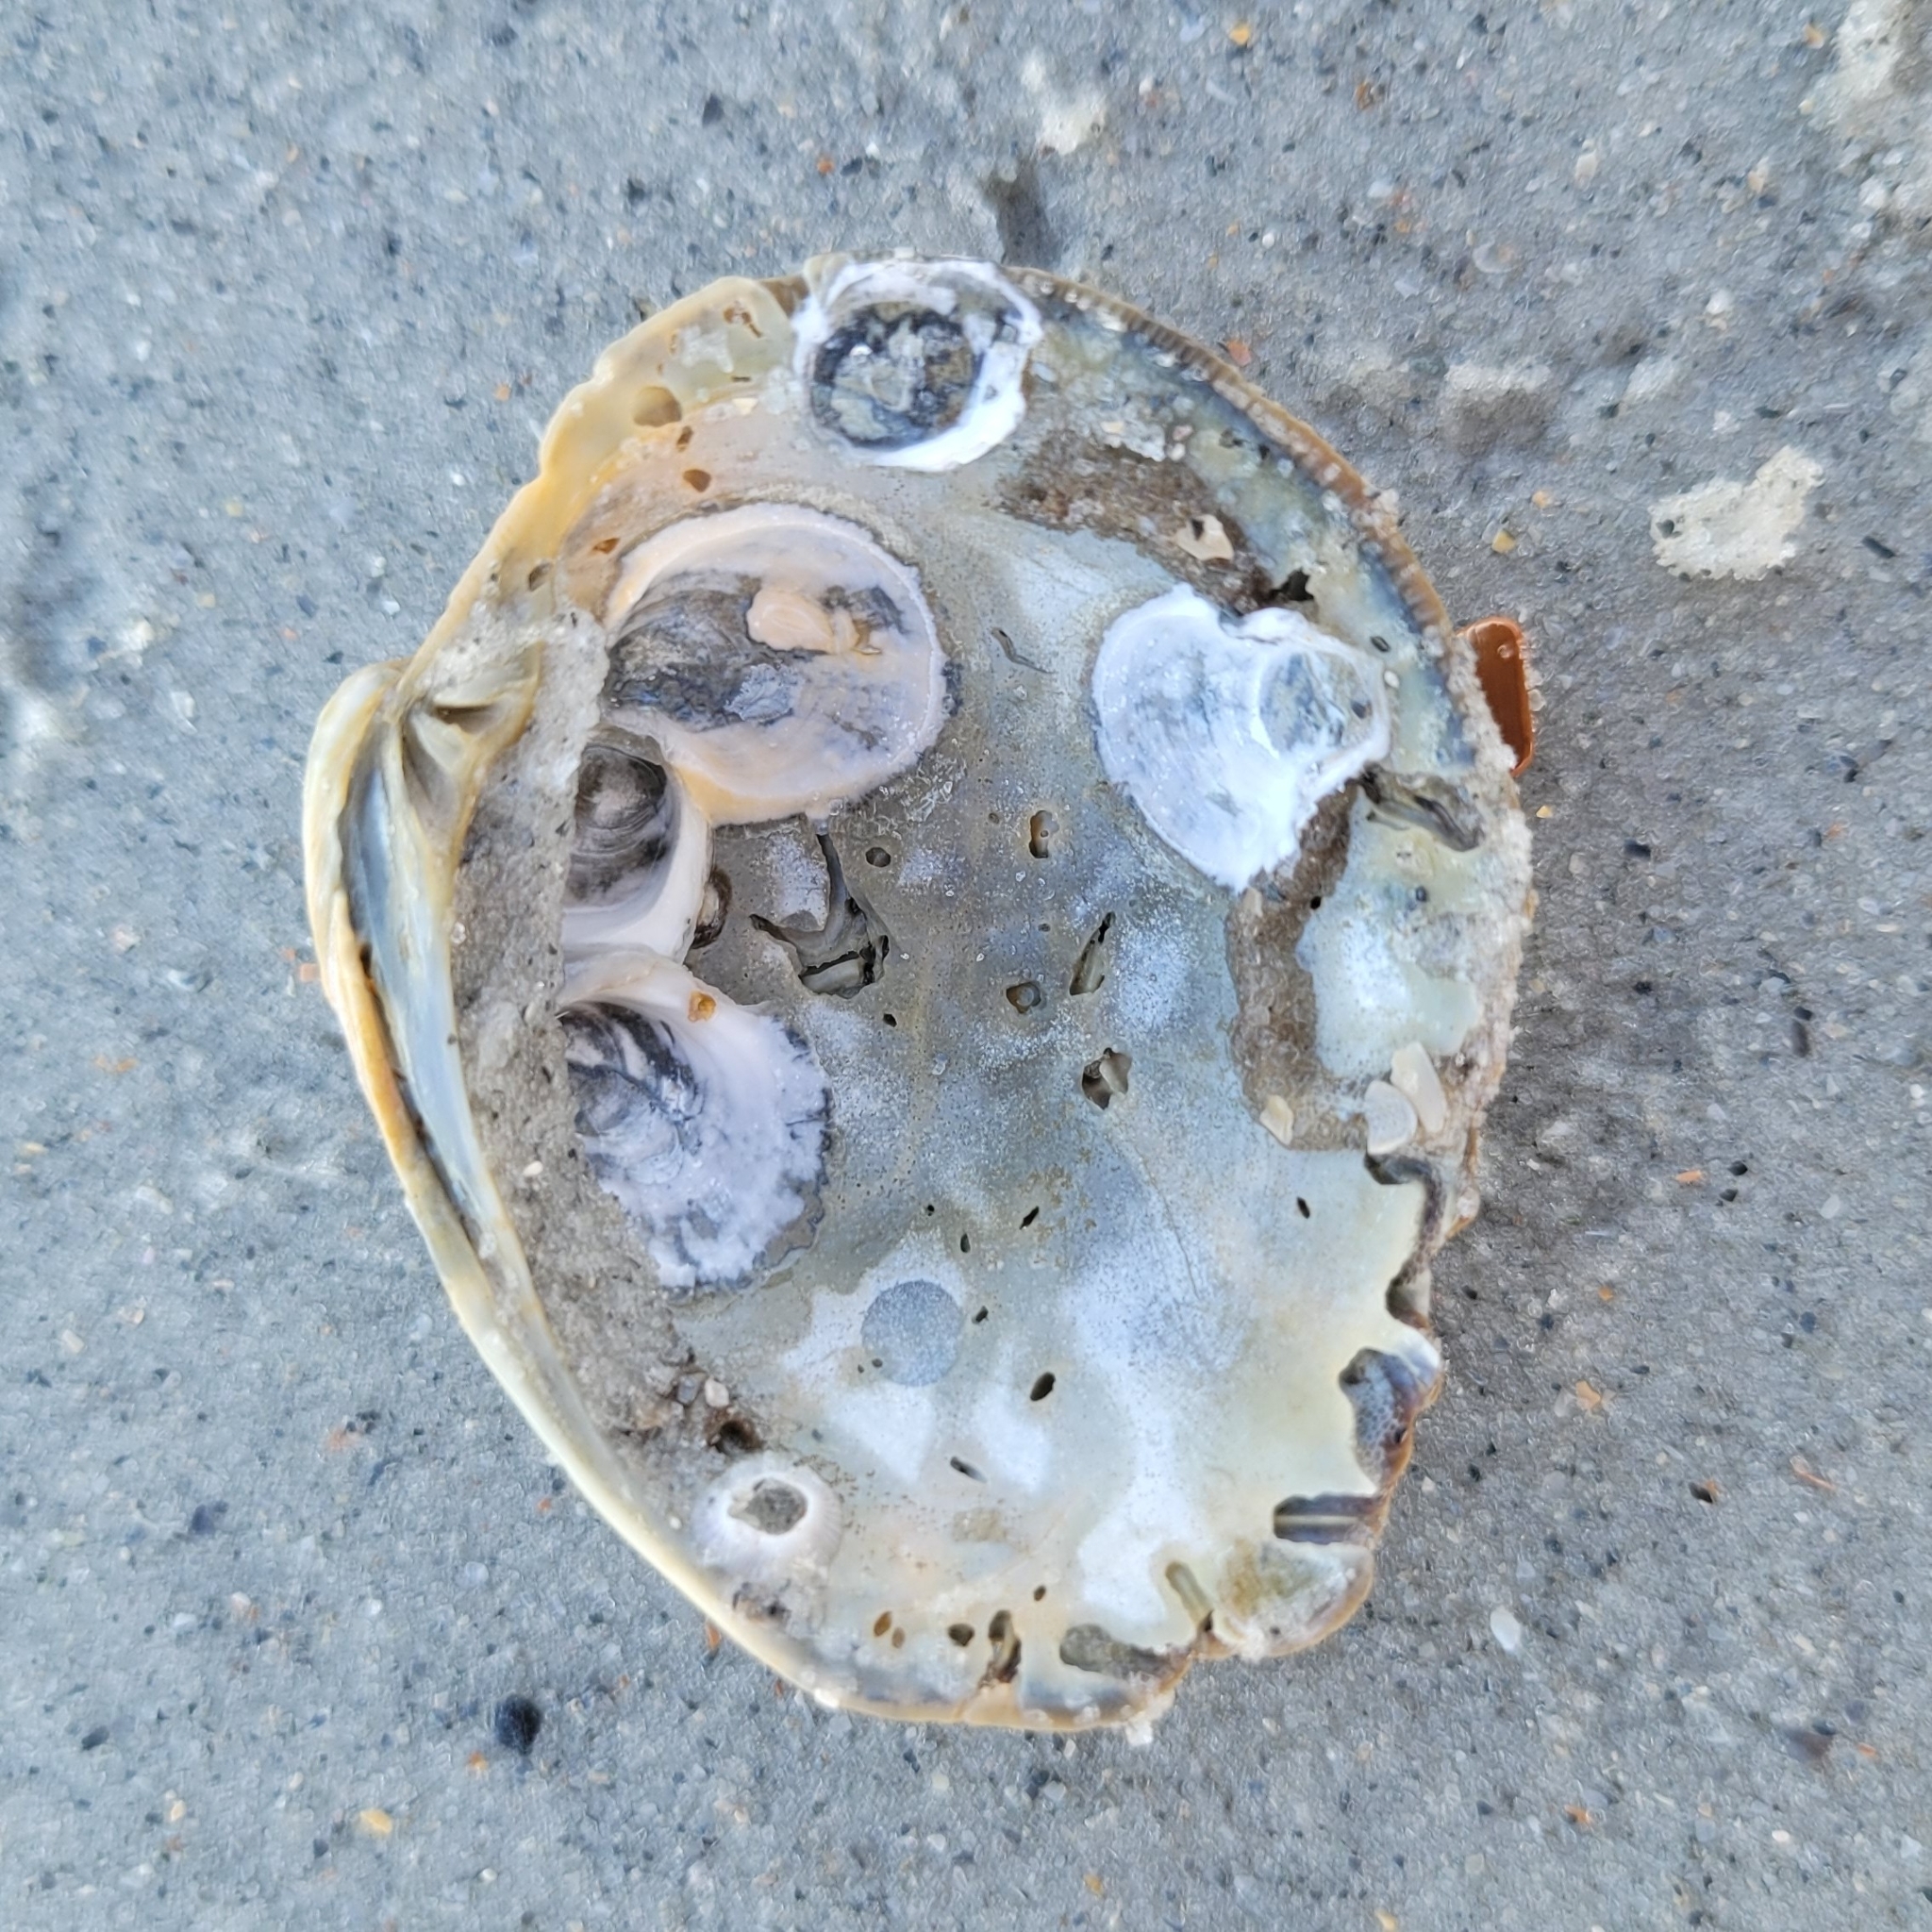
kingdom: Animalia
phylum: Mollusca
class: Bivalvia
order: Venerida
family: Veneridae
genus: Mercenaria
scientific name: Mercenaria campechiensis
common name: Südliche quahog-muschel
